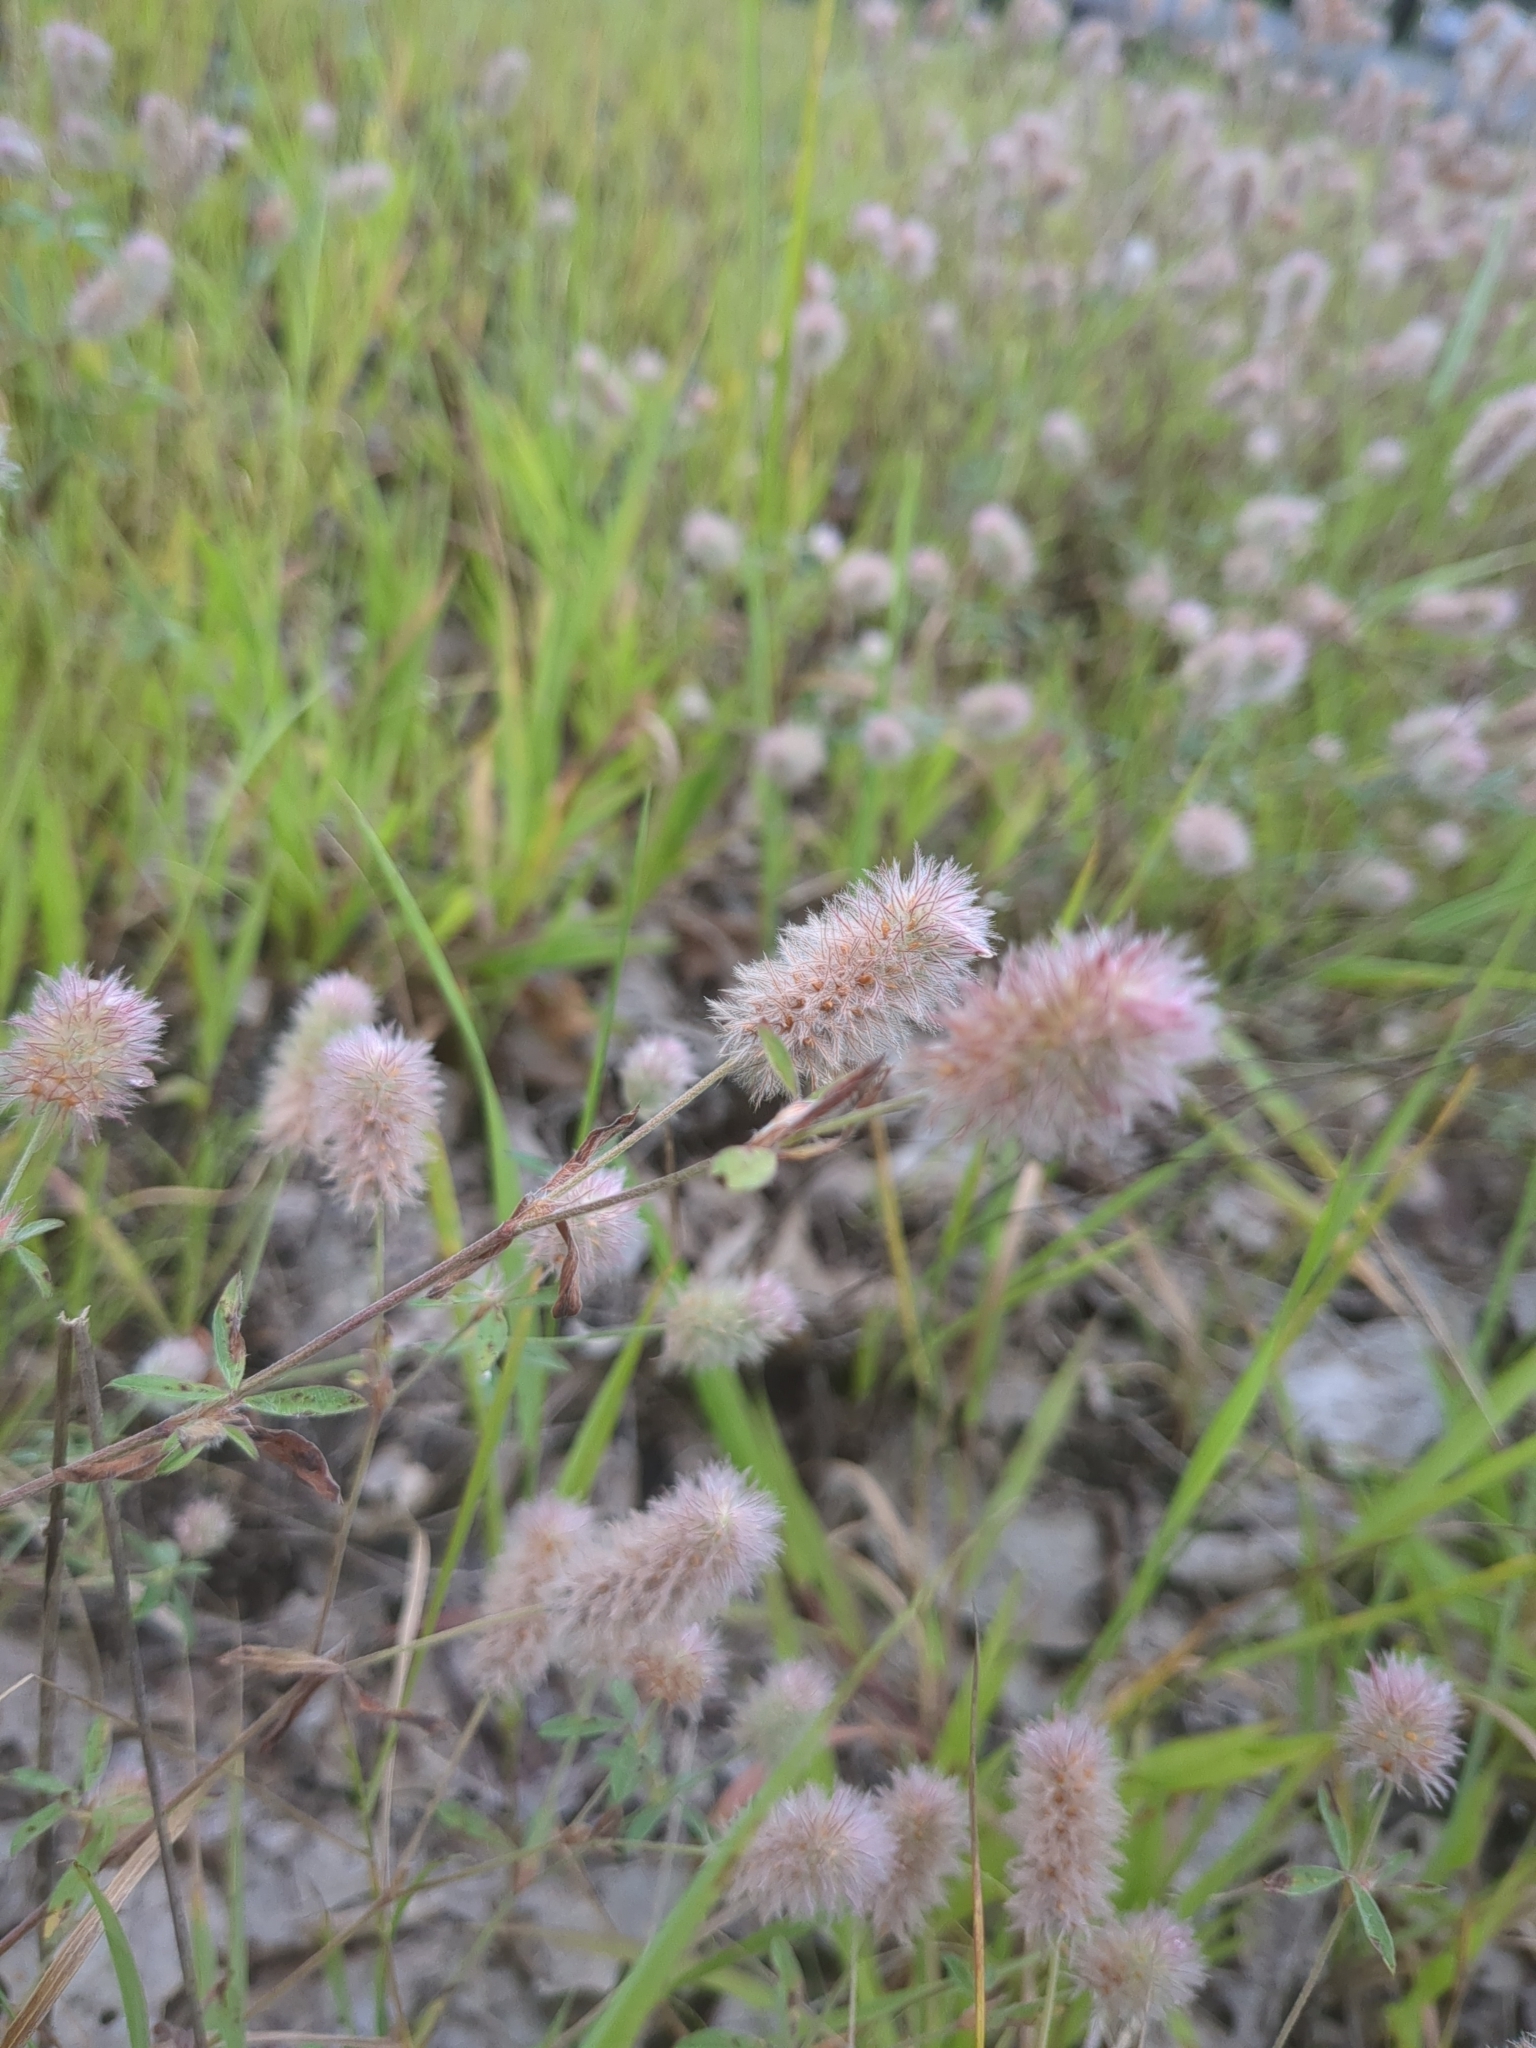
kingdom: Plantae
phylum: Tracheophyta
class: Magnoliopsida
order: Fabales
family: Fabaceae
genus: Trifolium
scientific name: Trifolium arvense
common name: Hare's-foot clover
